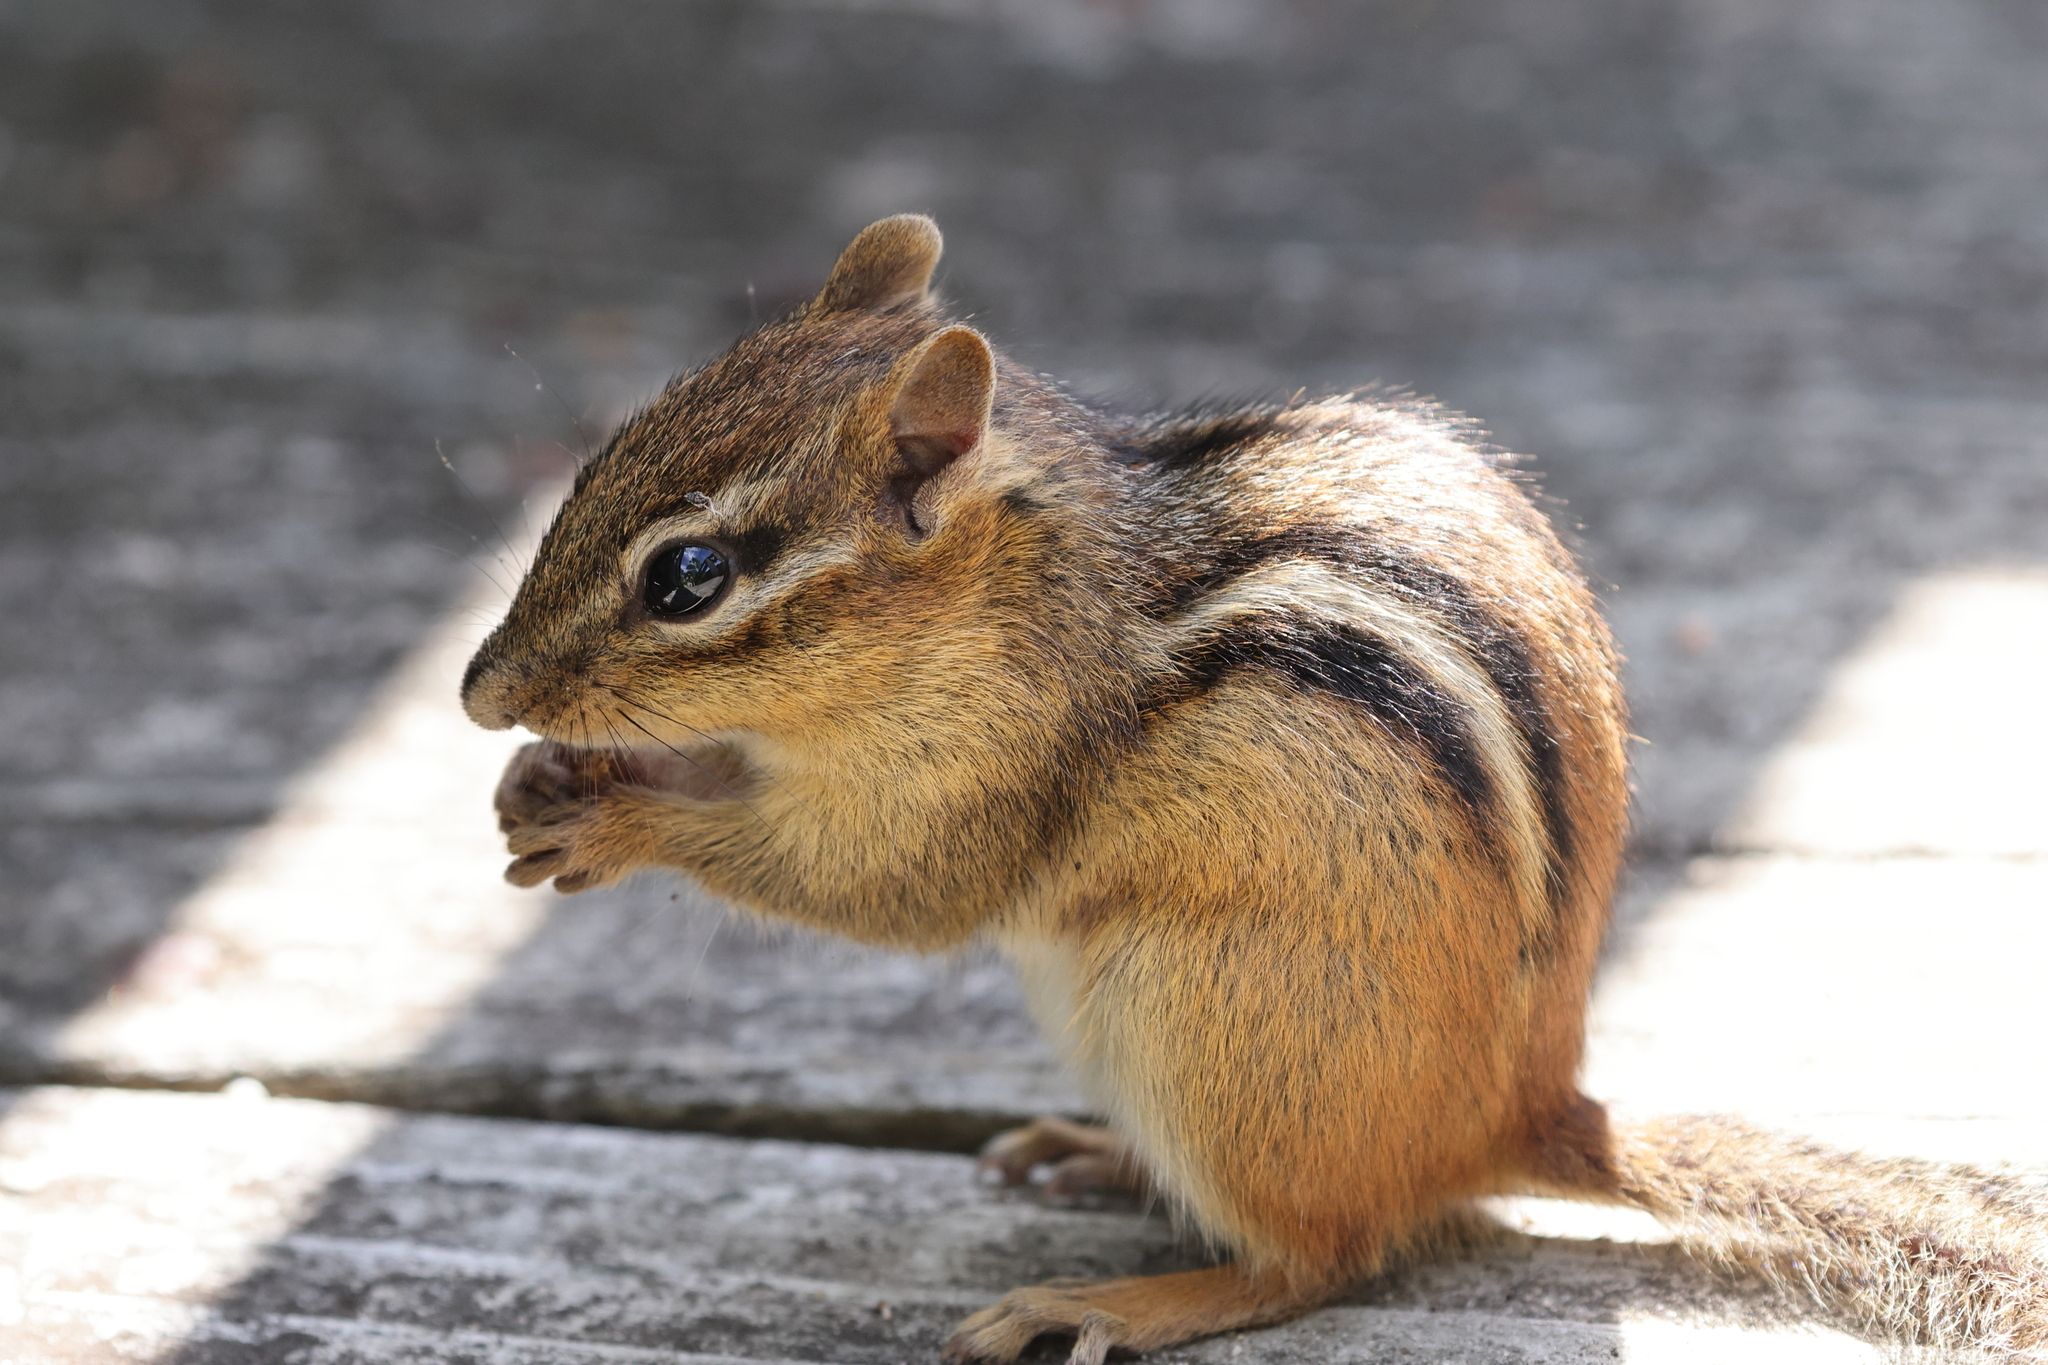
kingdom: Animalia
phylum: Chordata
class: Mammalia
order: Rodentia
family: Sciuridae
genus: Tamias
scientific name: Tamias striatus
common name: Eastern chipmunk
